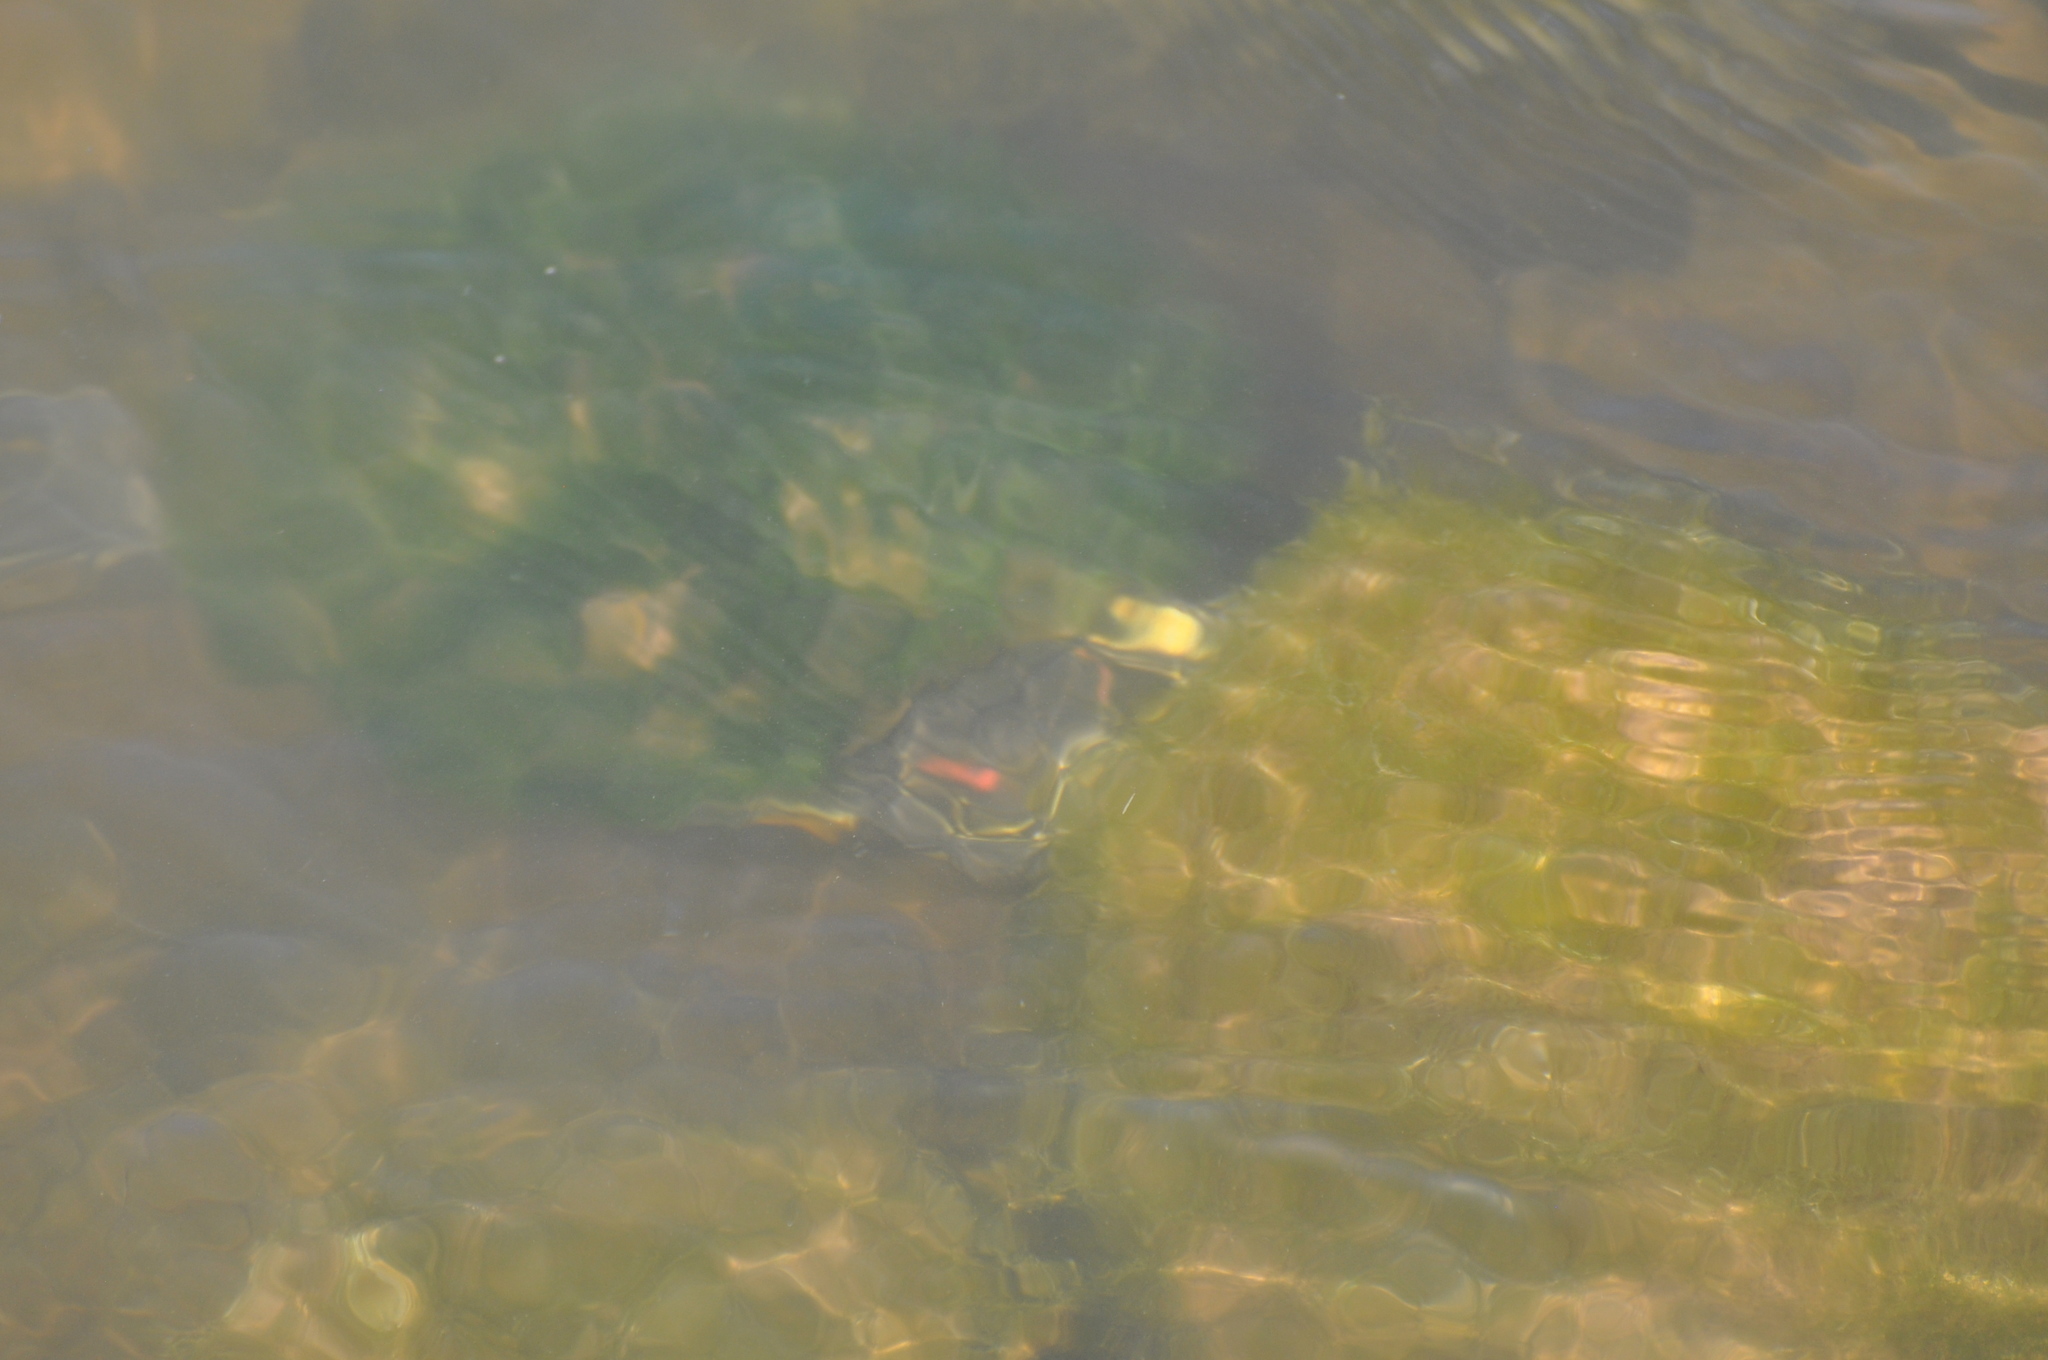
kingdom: Animalia
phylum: Chordata
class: Testudines
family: Emydidae
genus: Trachemys
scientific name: Trachemys scripta
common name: Slider
